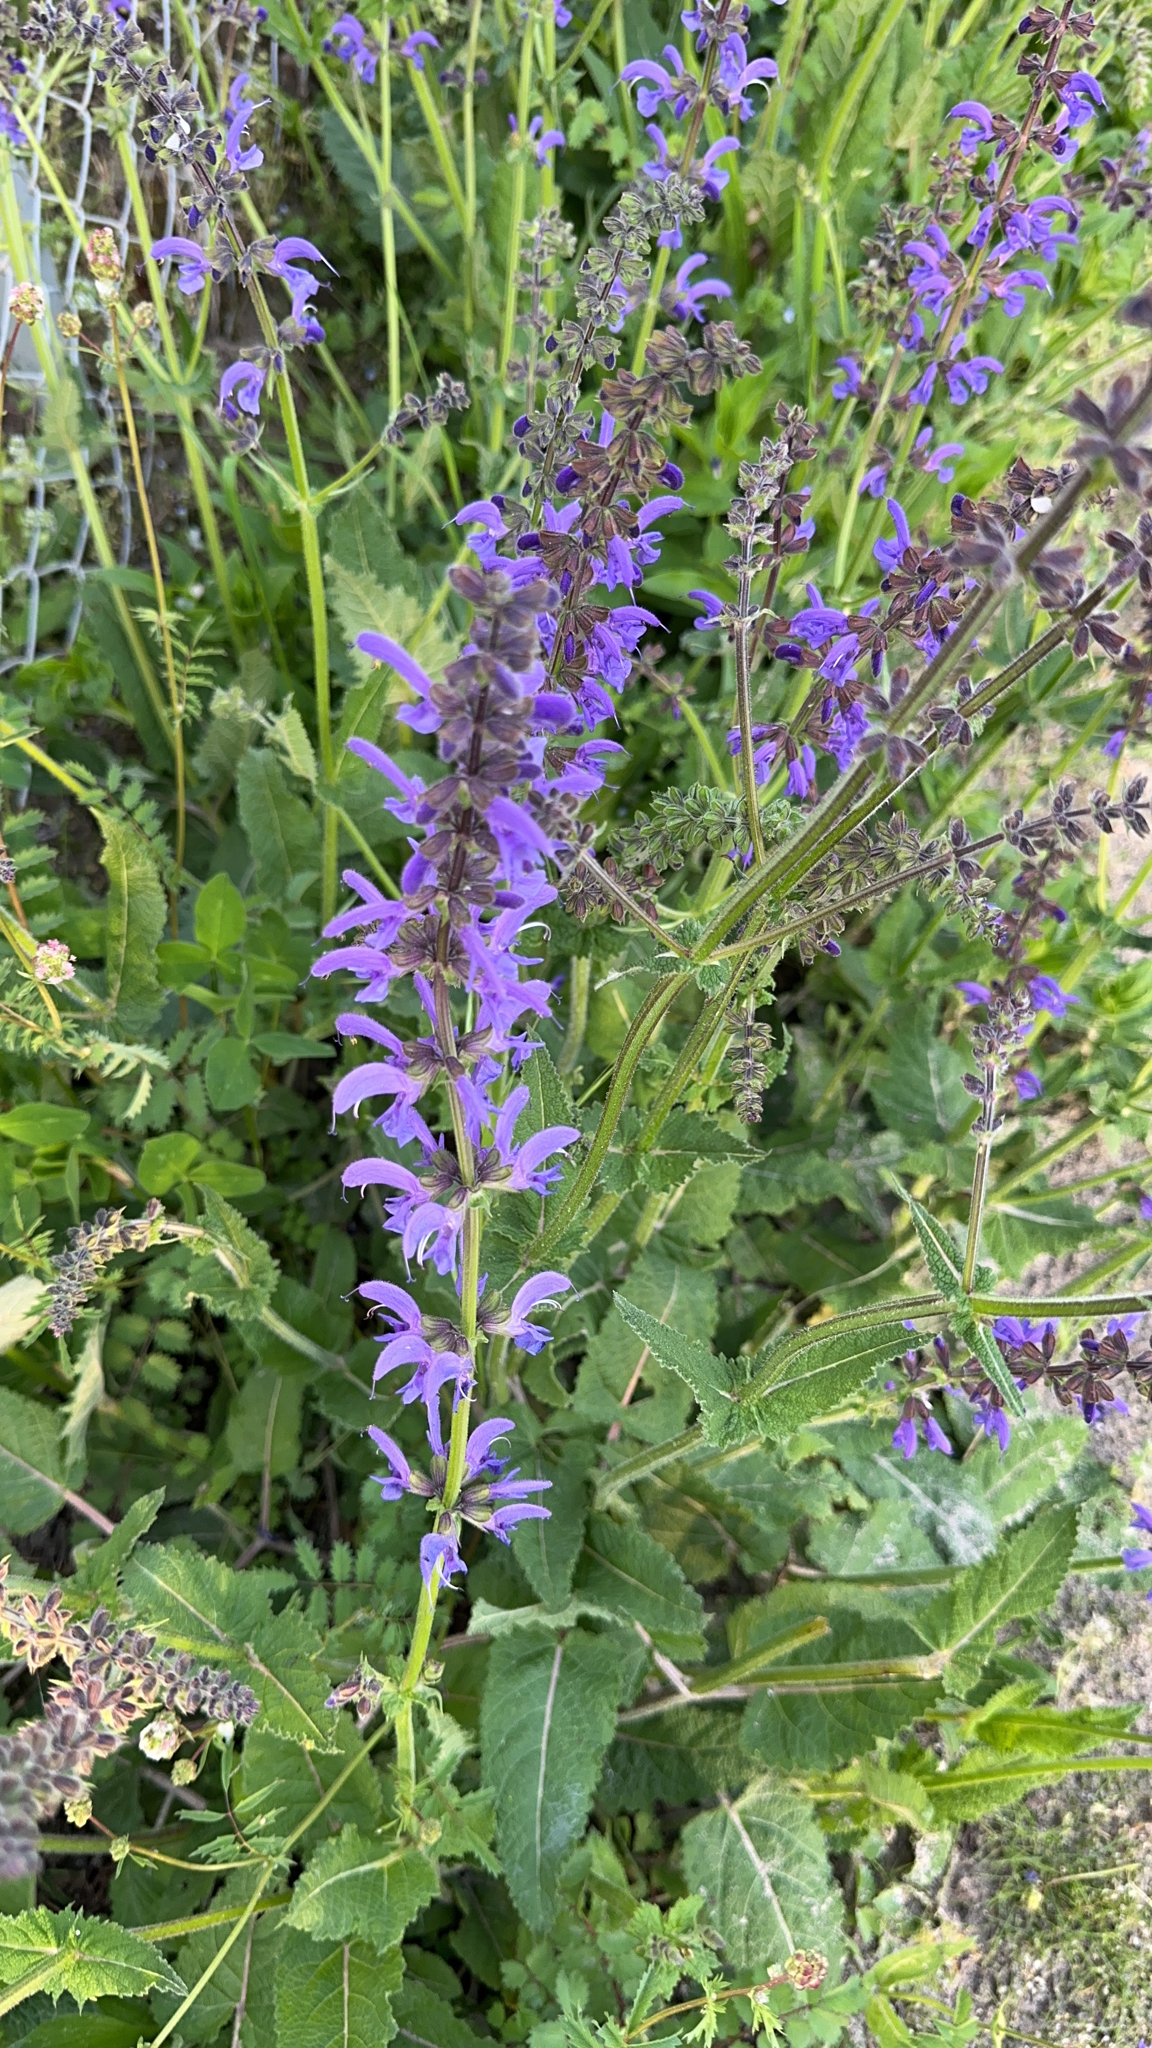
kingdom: Plantae
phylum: Tracheophyta
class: Magnoliopsida
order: Lamiales
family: Lamiaceae
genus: Salvia
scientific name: Salvia pratensis
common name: Meadow sage
